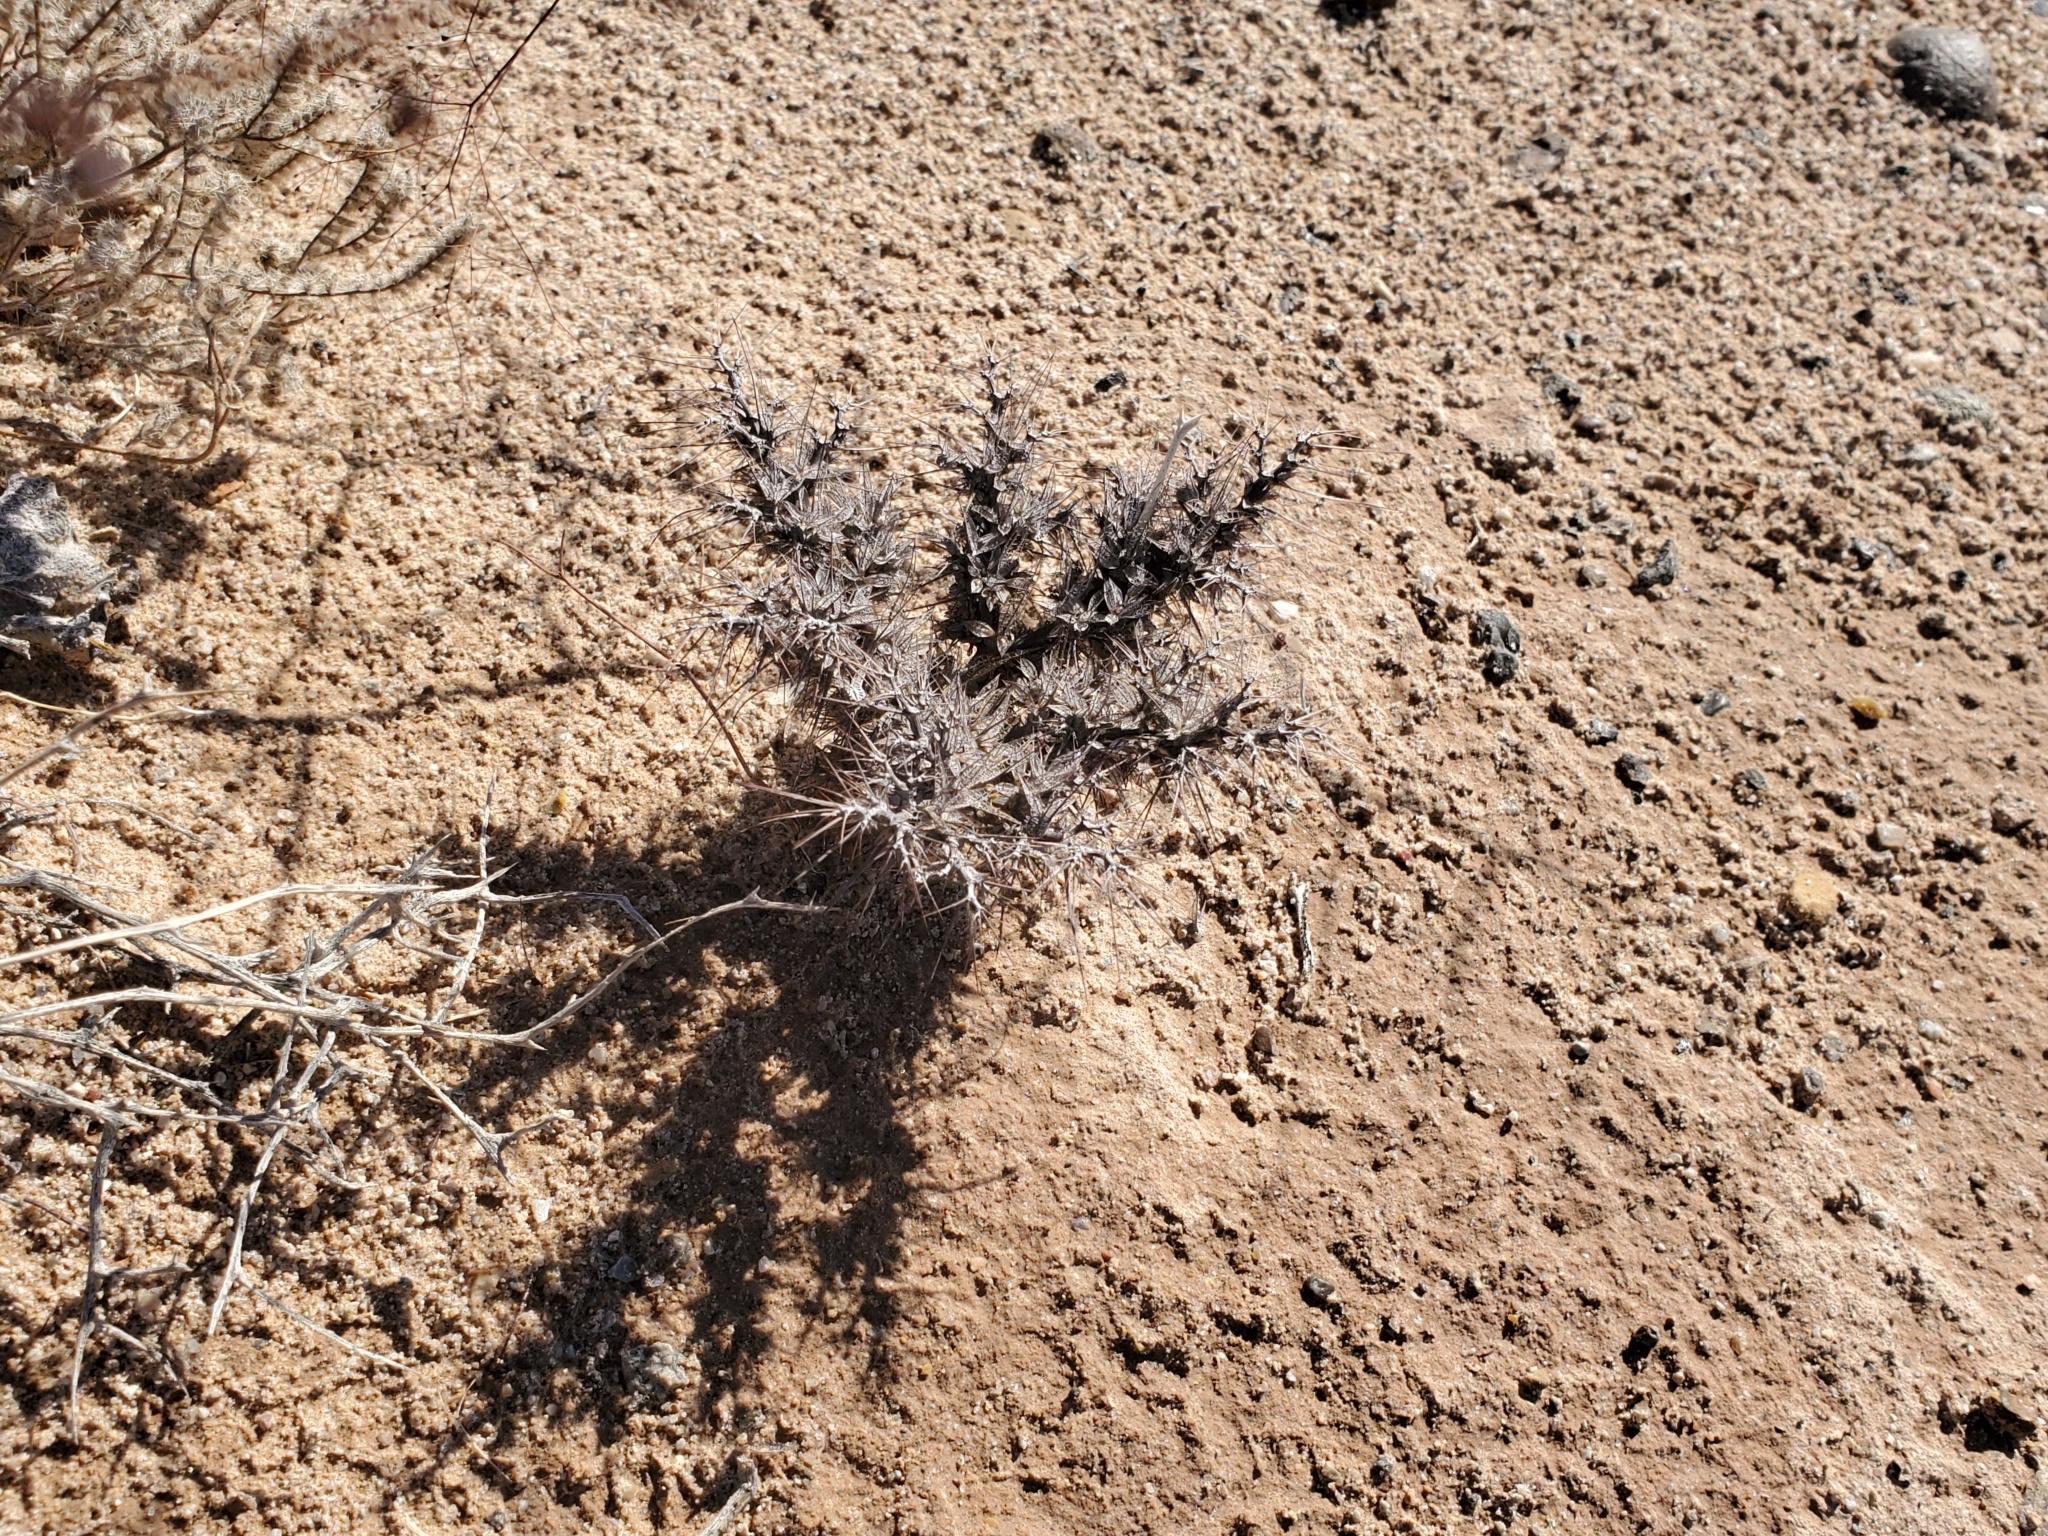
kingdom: Plantae
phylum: Tracheophyta
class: Magnoliopsida
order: Caryophyllales
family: Polygonaceae
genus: Chorizanthe
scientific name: Chorizanthe rigida
